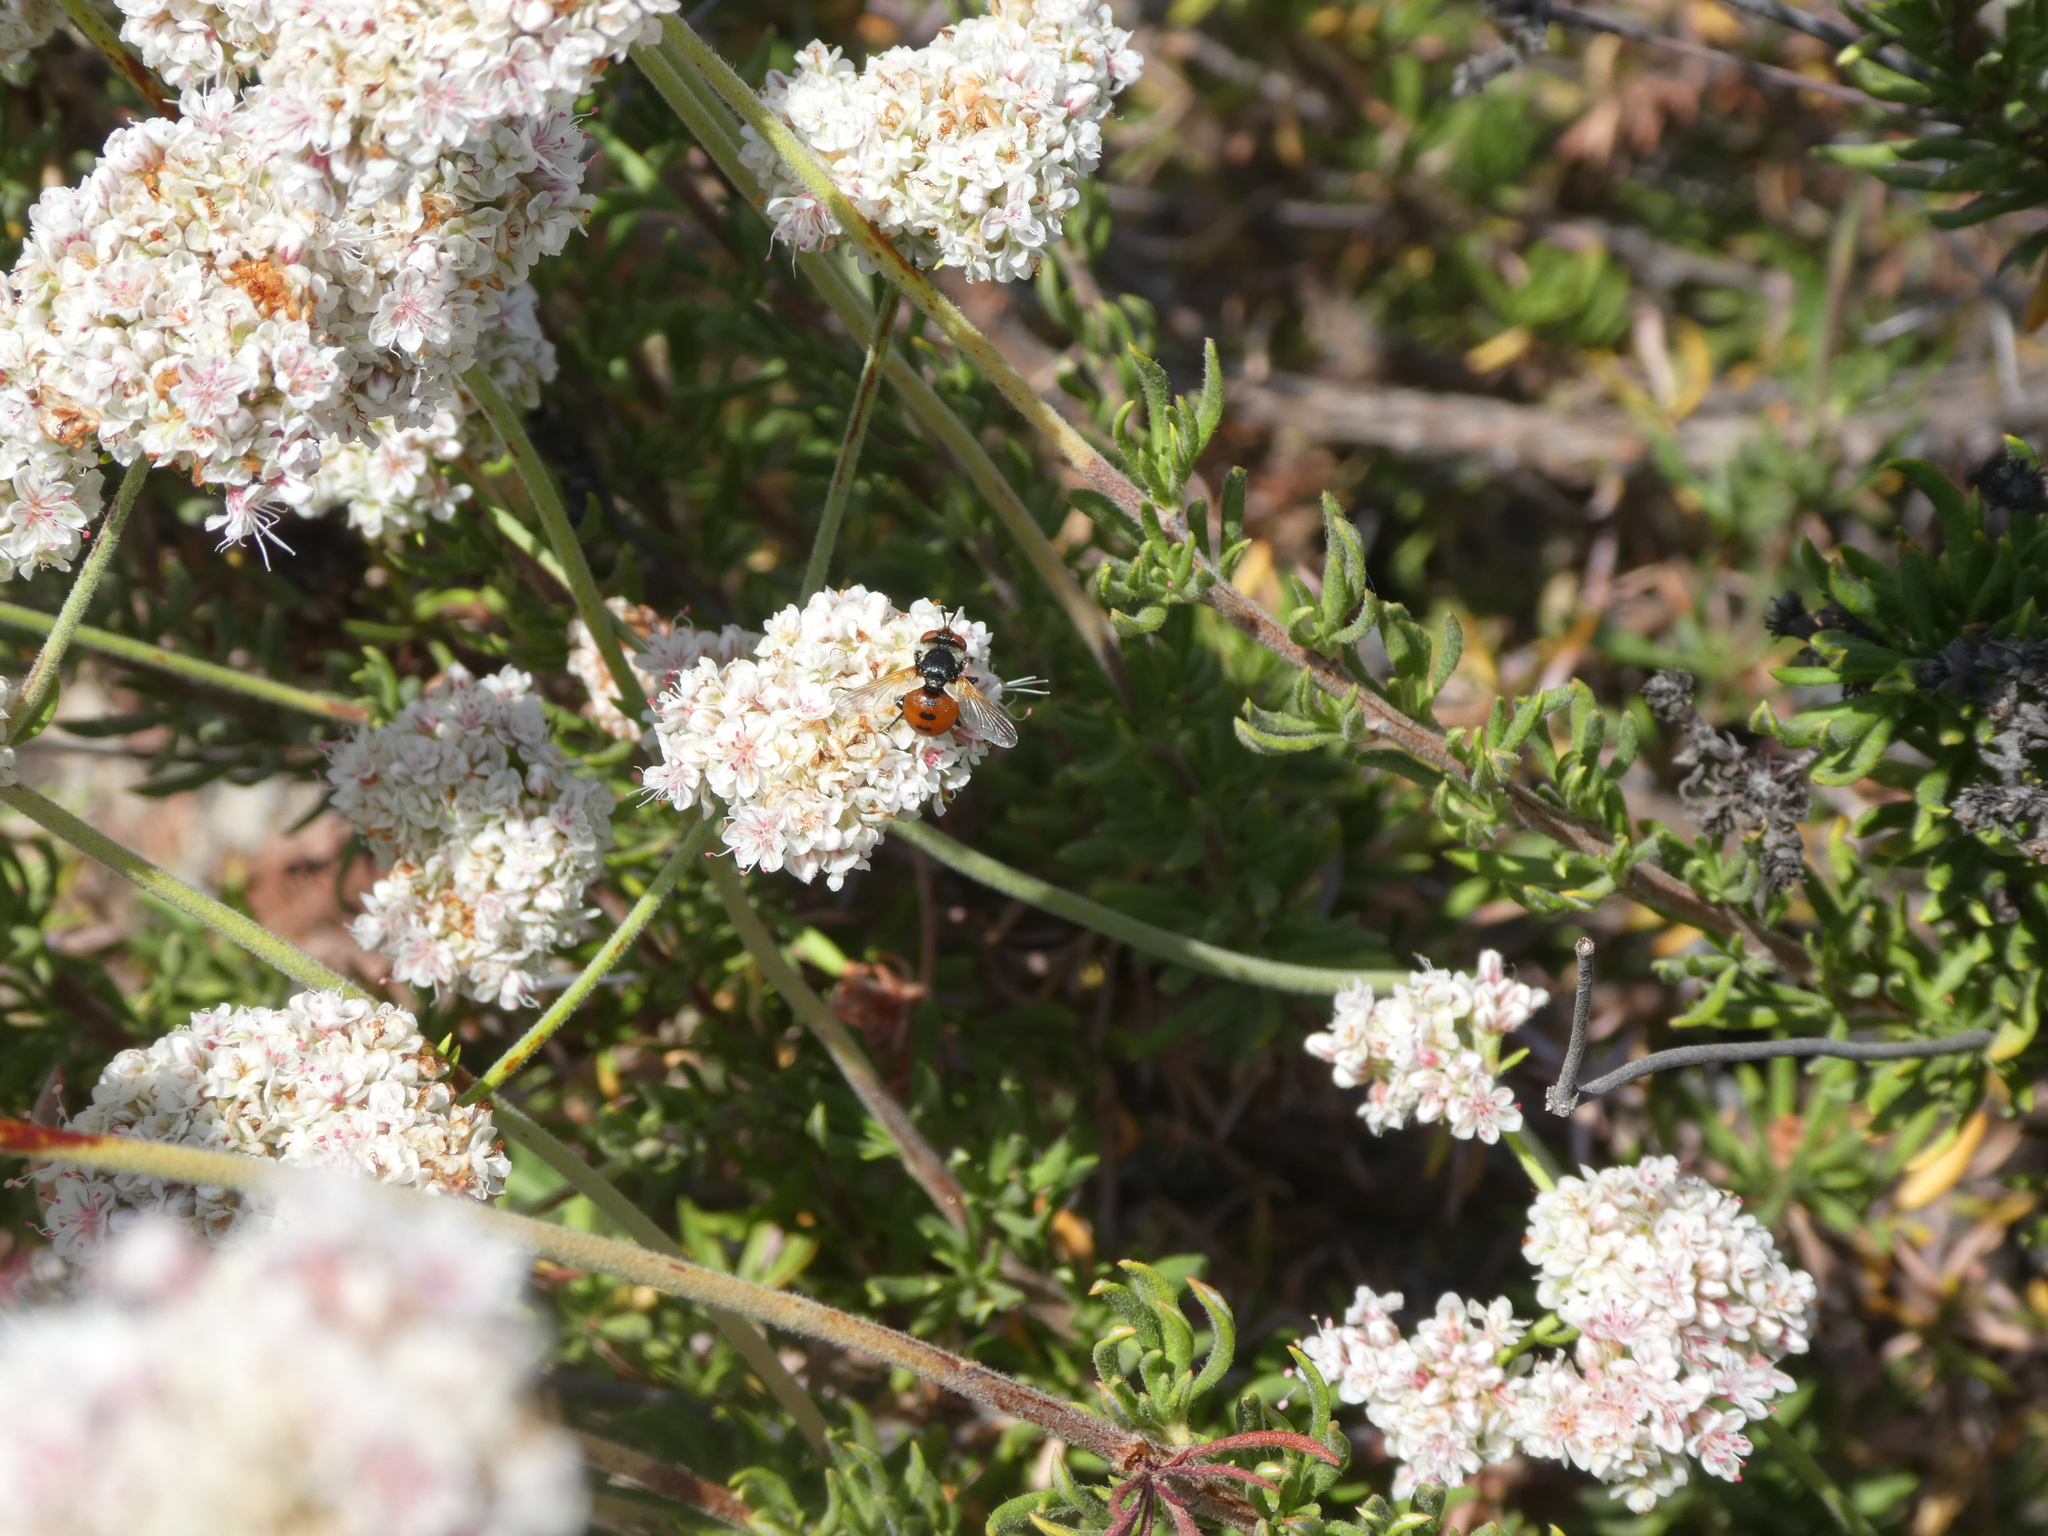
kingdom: Animalia
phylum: Arthropoda
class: Insecta
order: Diptera
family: Tachinidae
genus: Gymnosoma
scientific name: Gymnosoma
